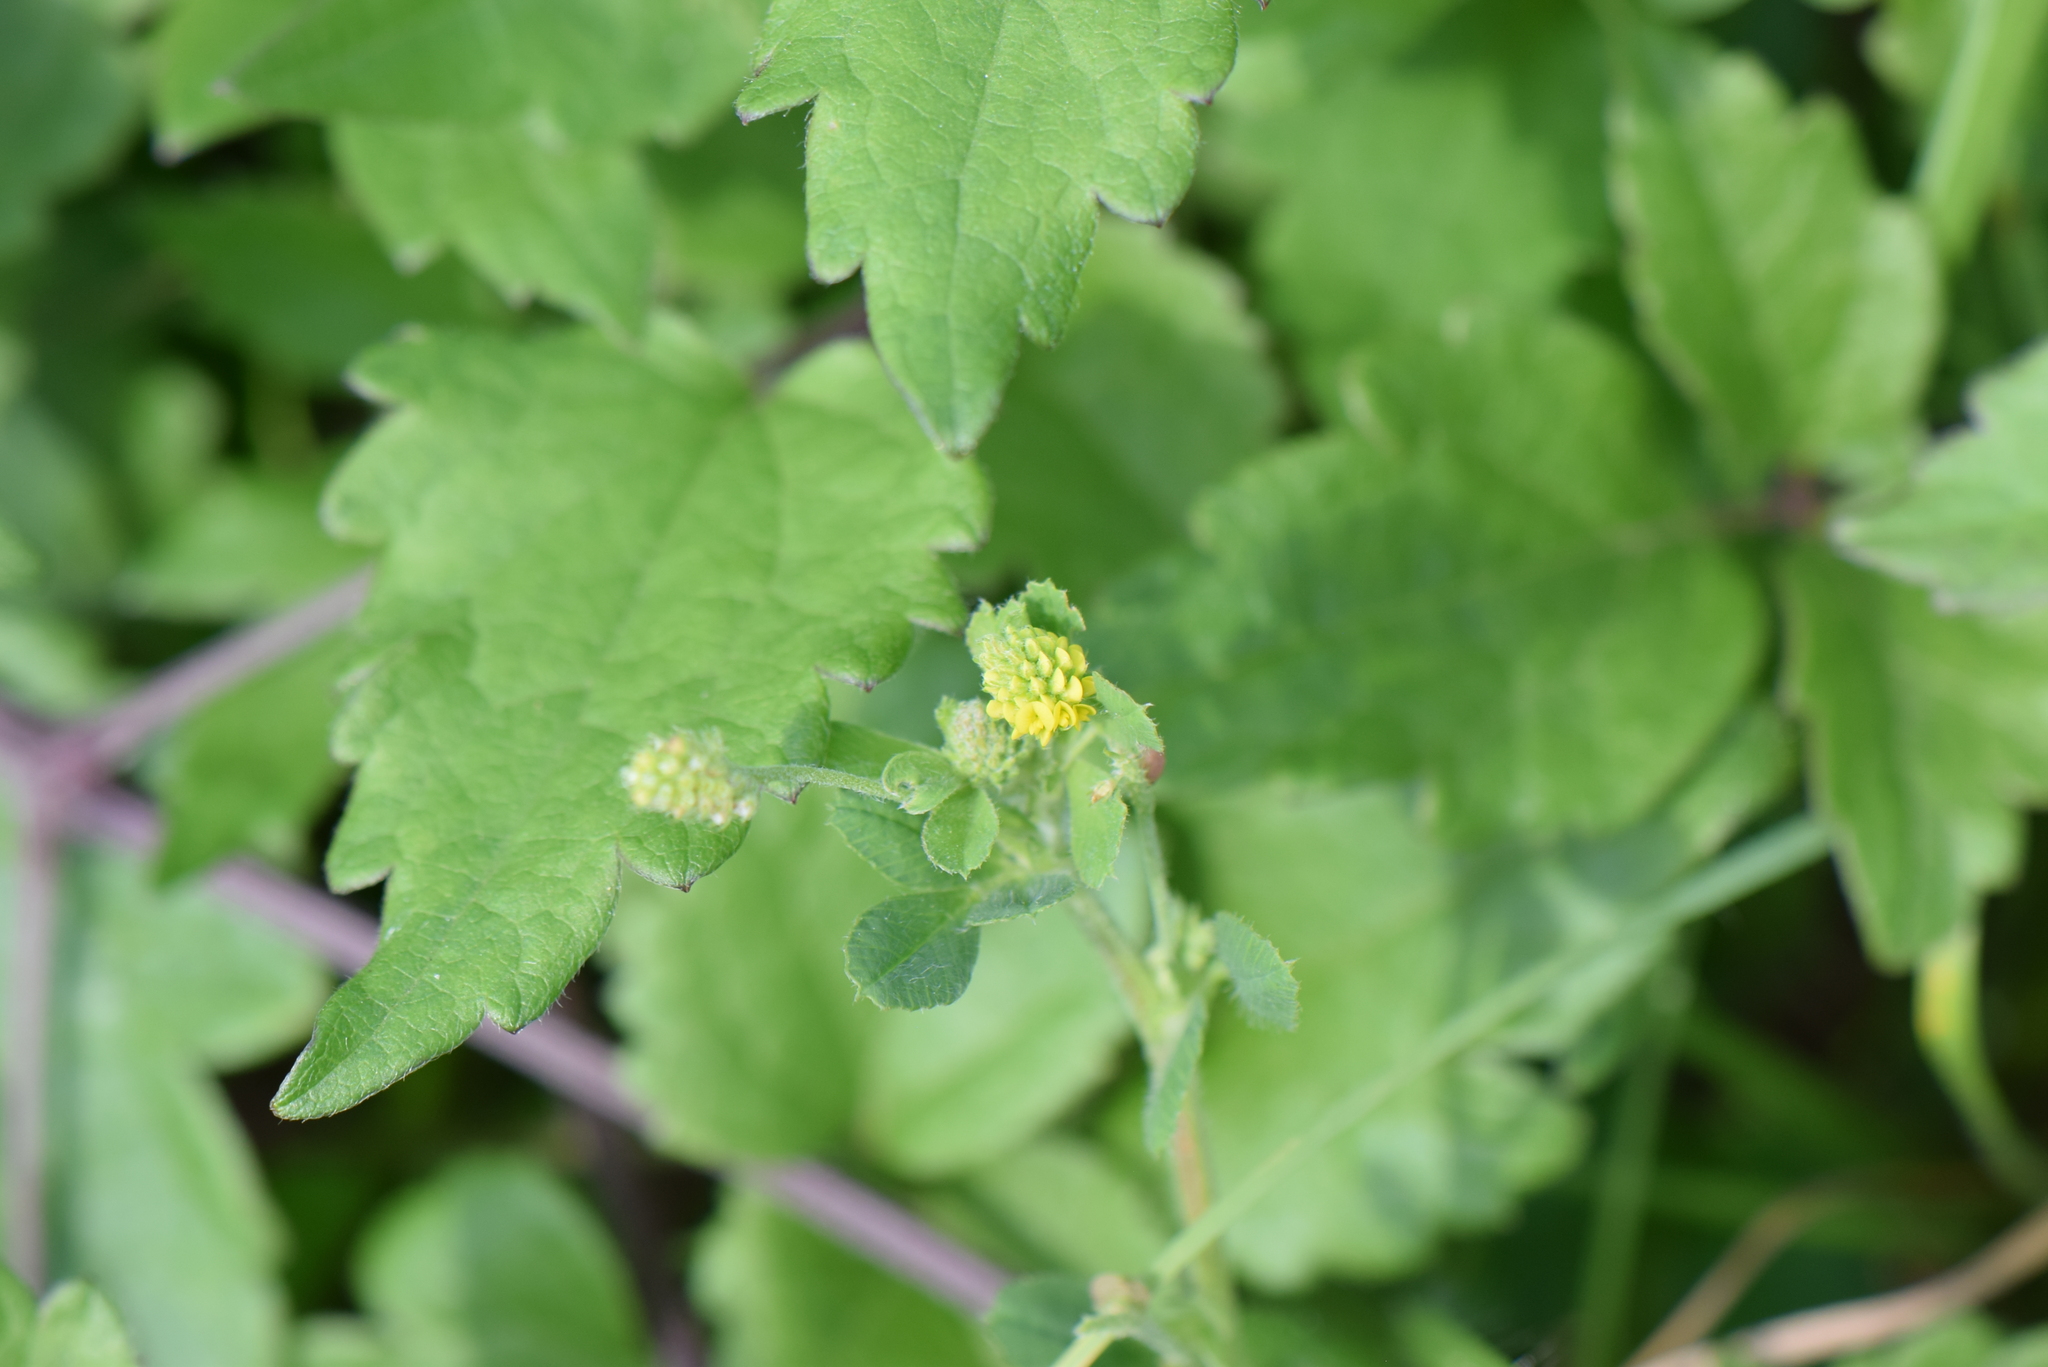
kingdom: Plantae
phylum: Tracheophyta
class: Magnoliopsida
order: Fabales
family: Fabaceae
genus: Medicago
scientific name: Medicago lupulina
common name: Black medick
